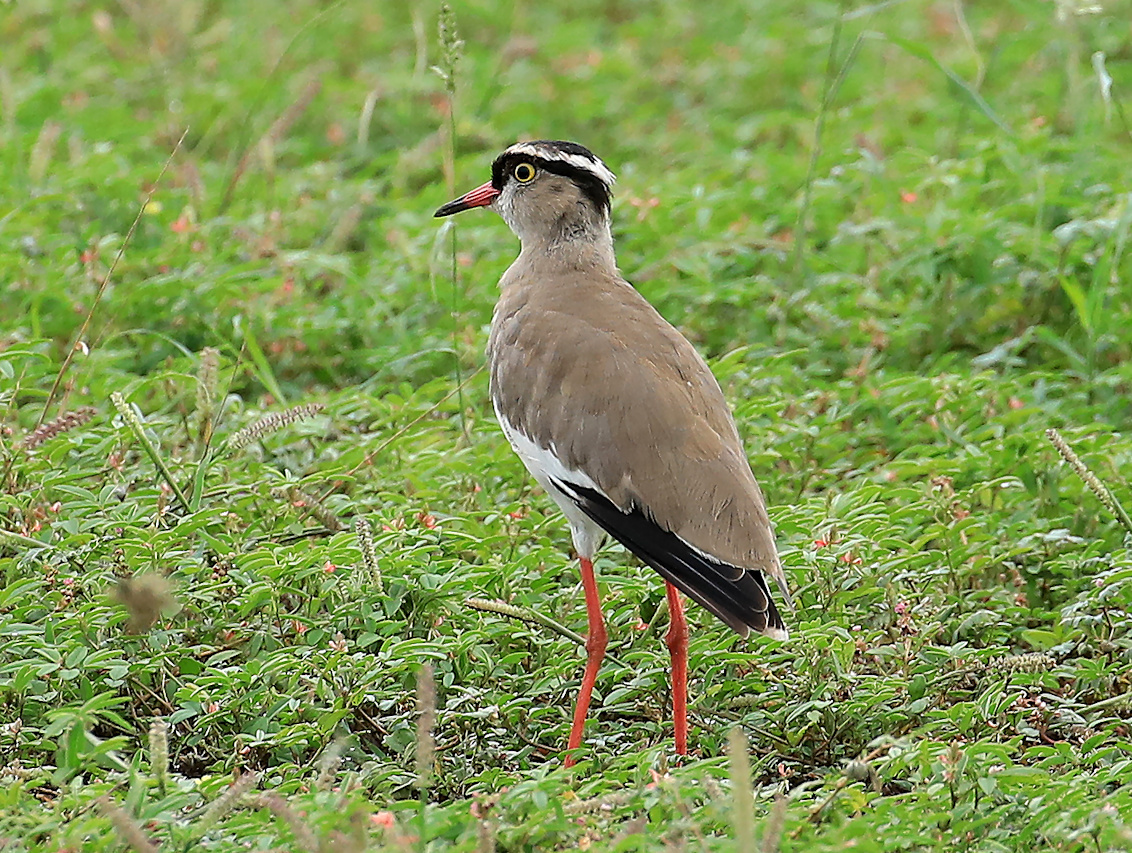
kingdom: Animalia
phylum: Chordata
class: Aves
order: Charadriiformes
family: Charadriidae
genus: Vanellus
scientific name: Vanellus coronatus
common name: Crowned lapwing
